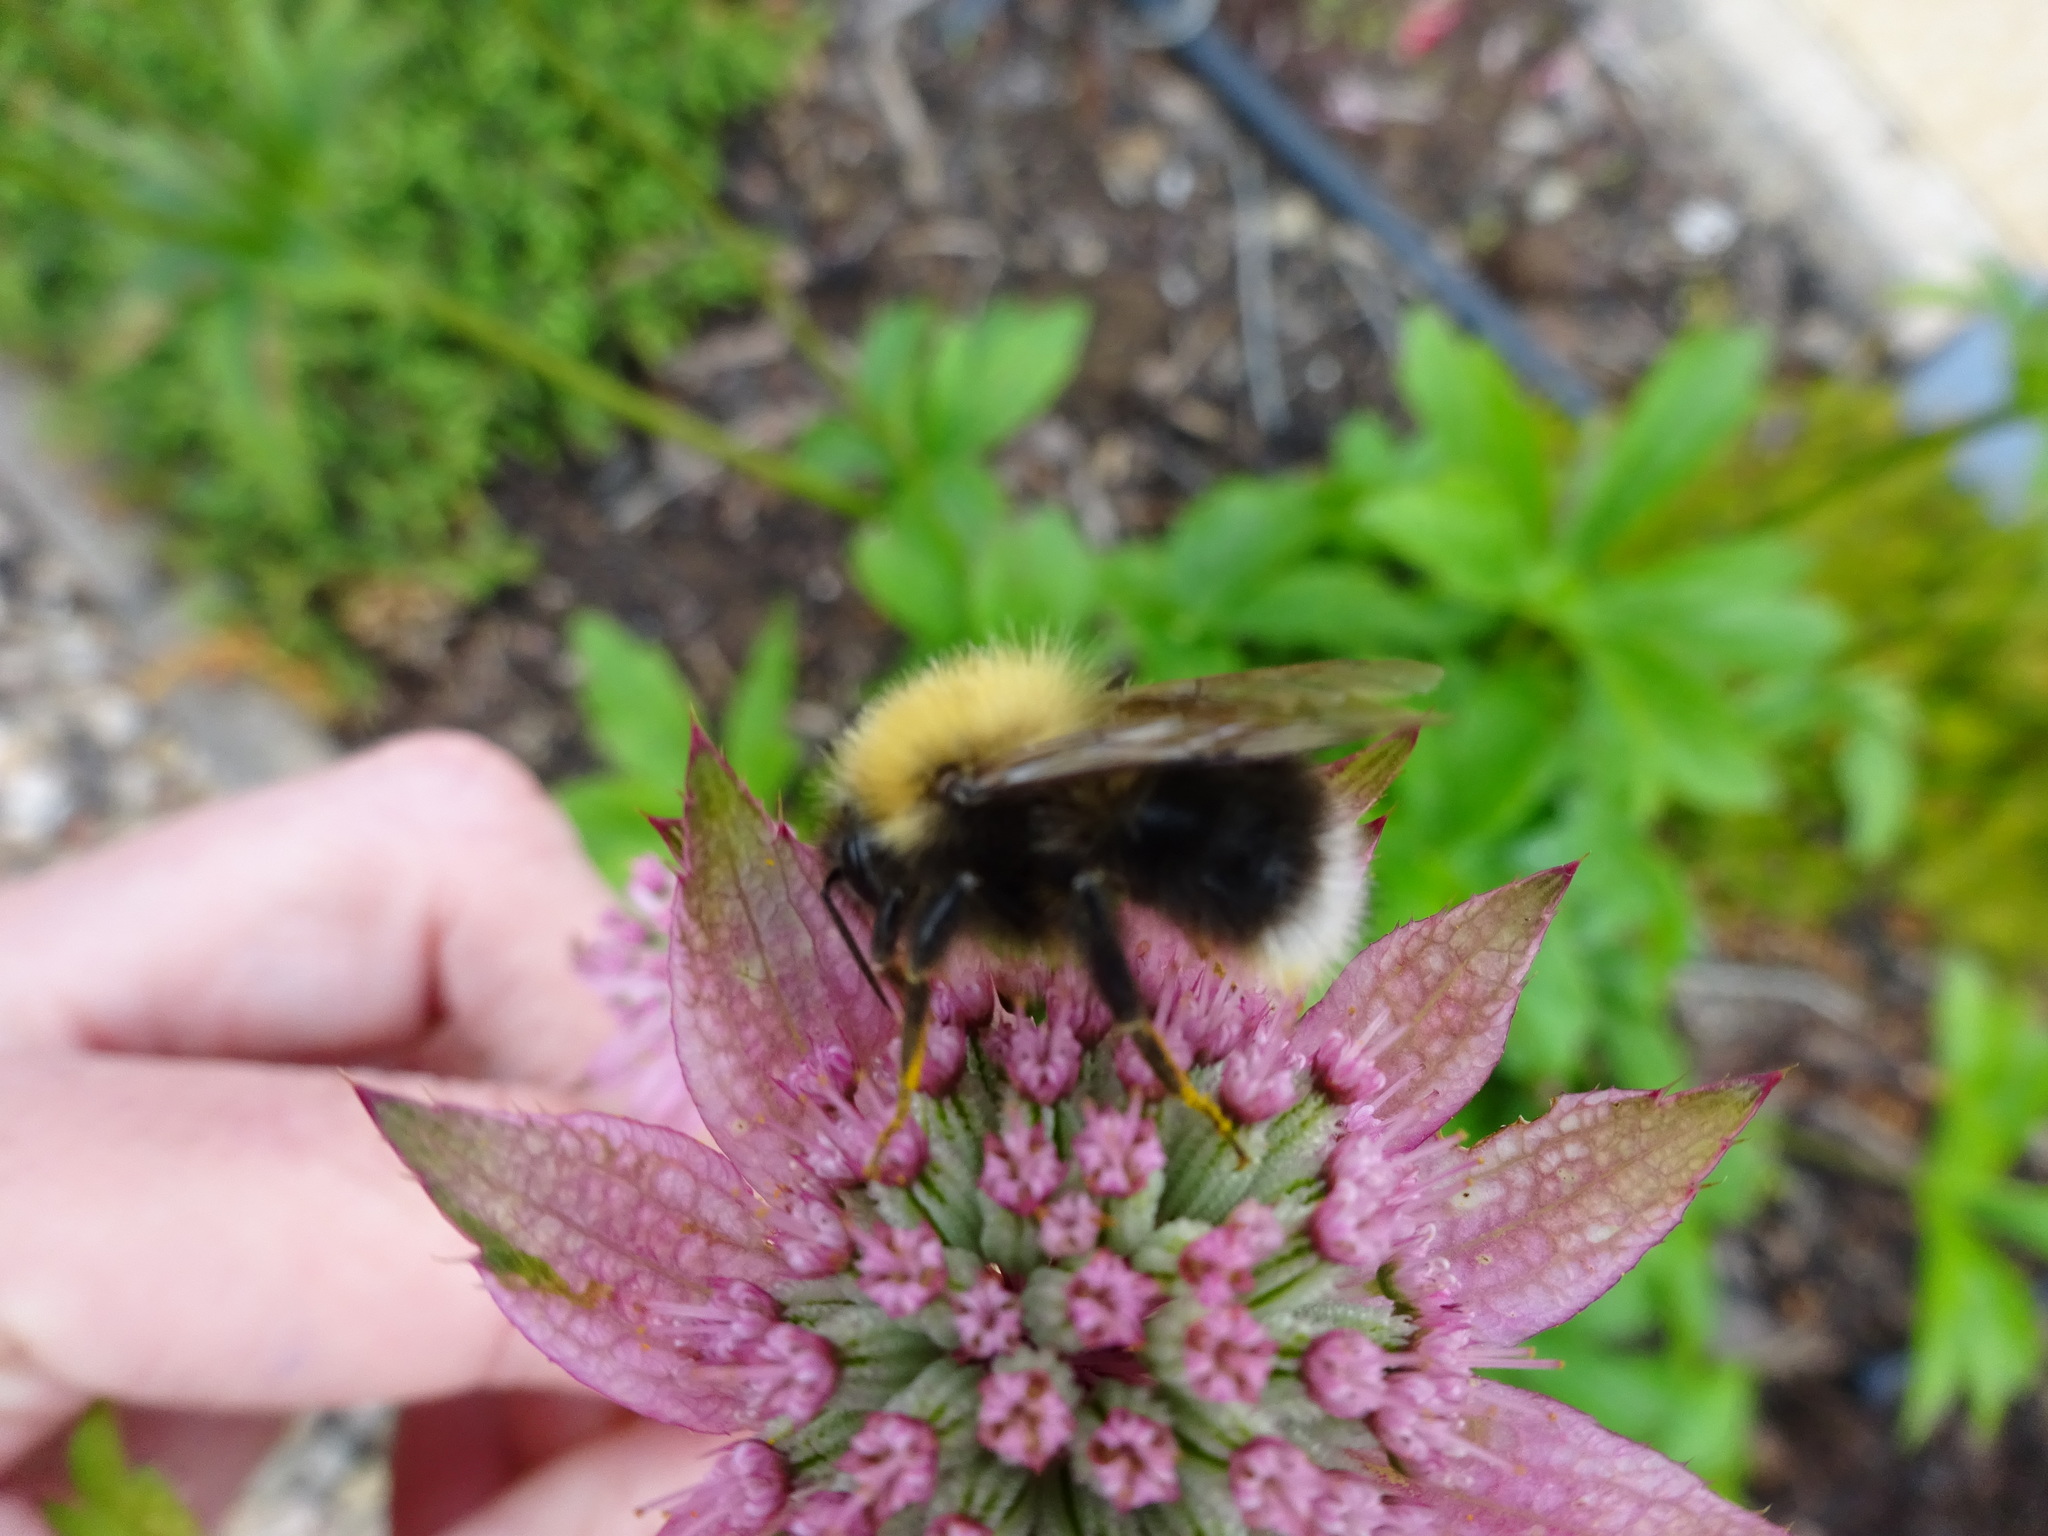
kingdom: Animalia
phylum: Arthropoda
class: Insecta
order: Hymenoptera
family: Apidae
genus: Bombus
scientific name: Bombus hypnorum
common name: New garden bumblebee
